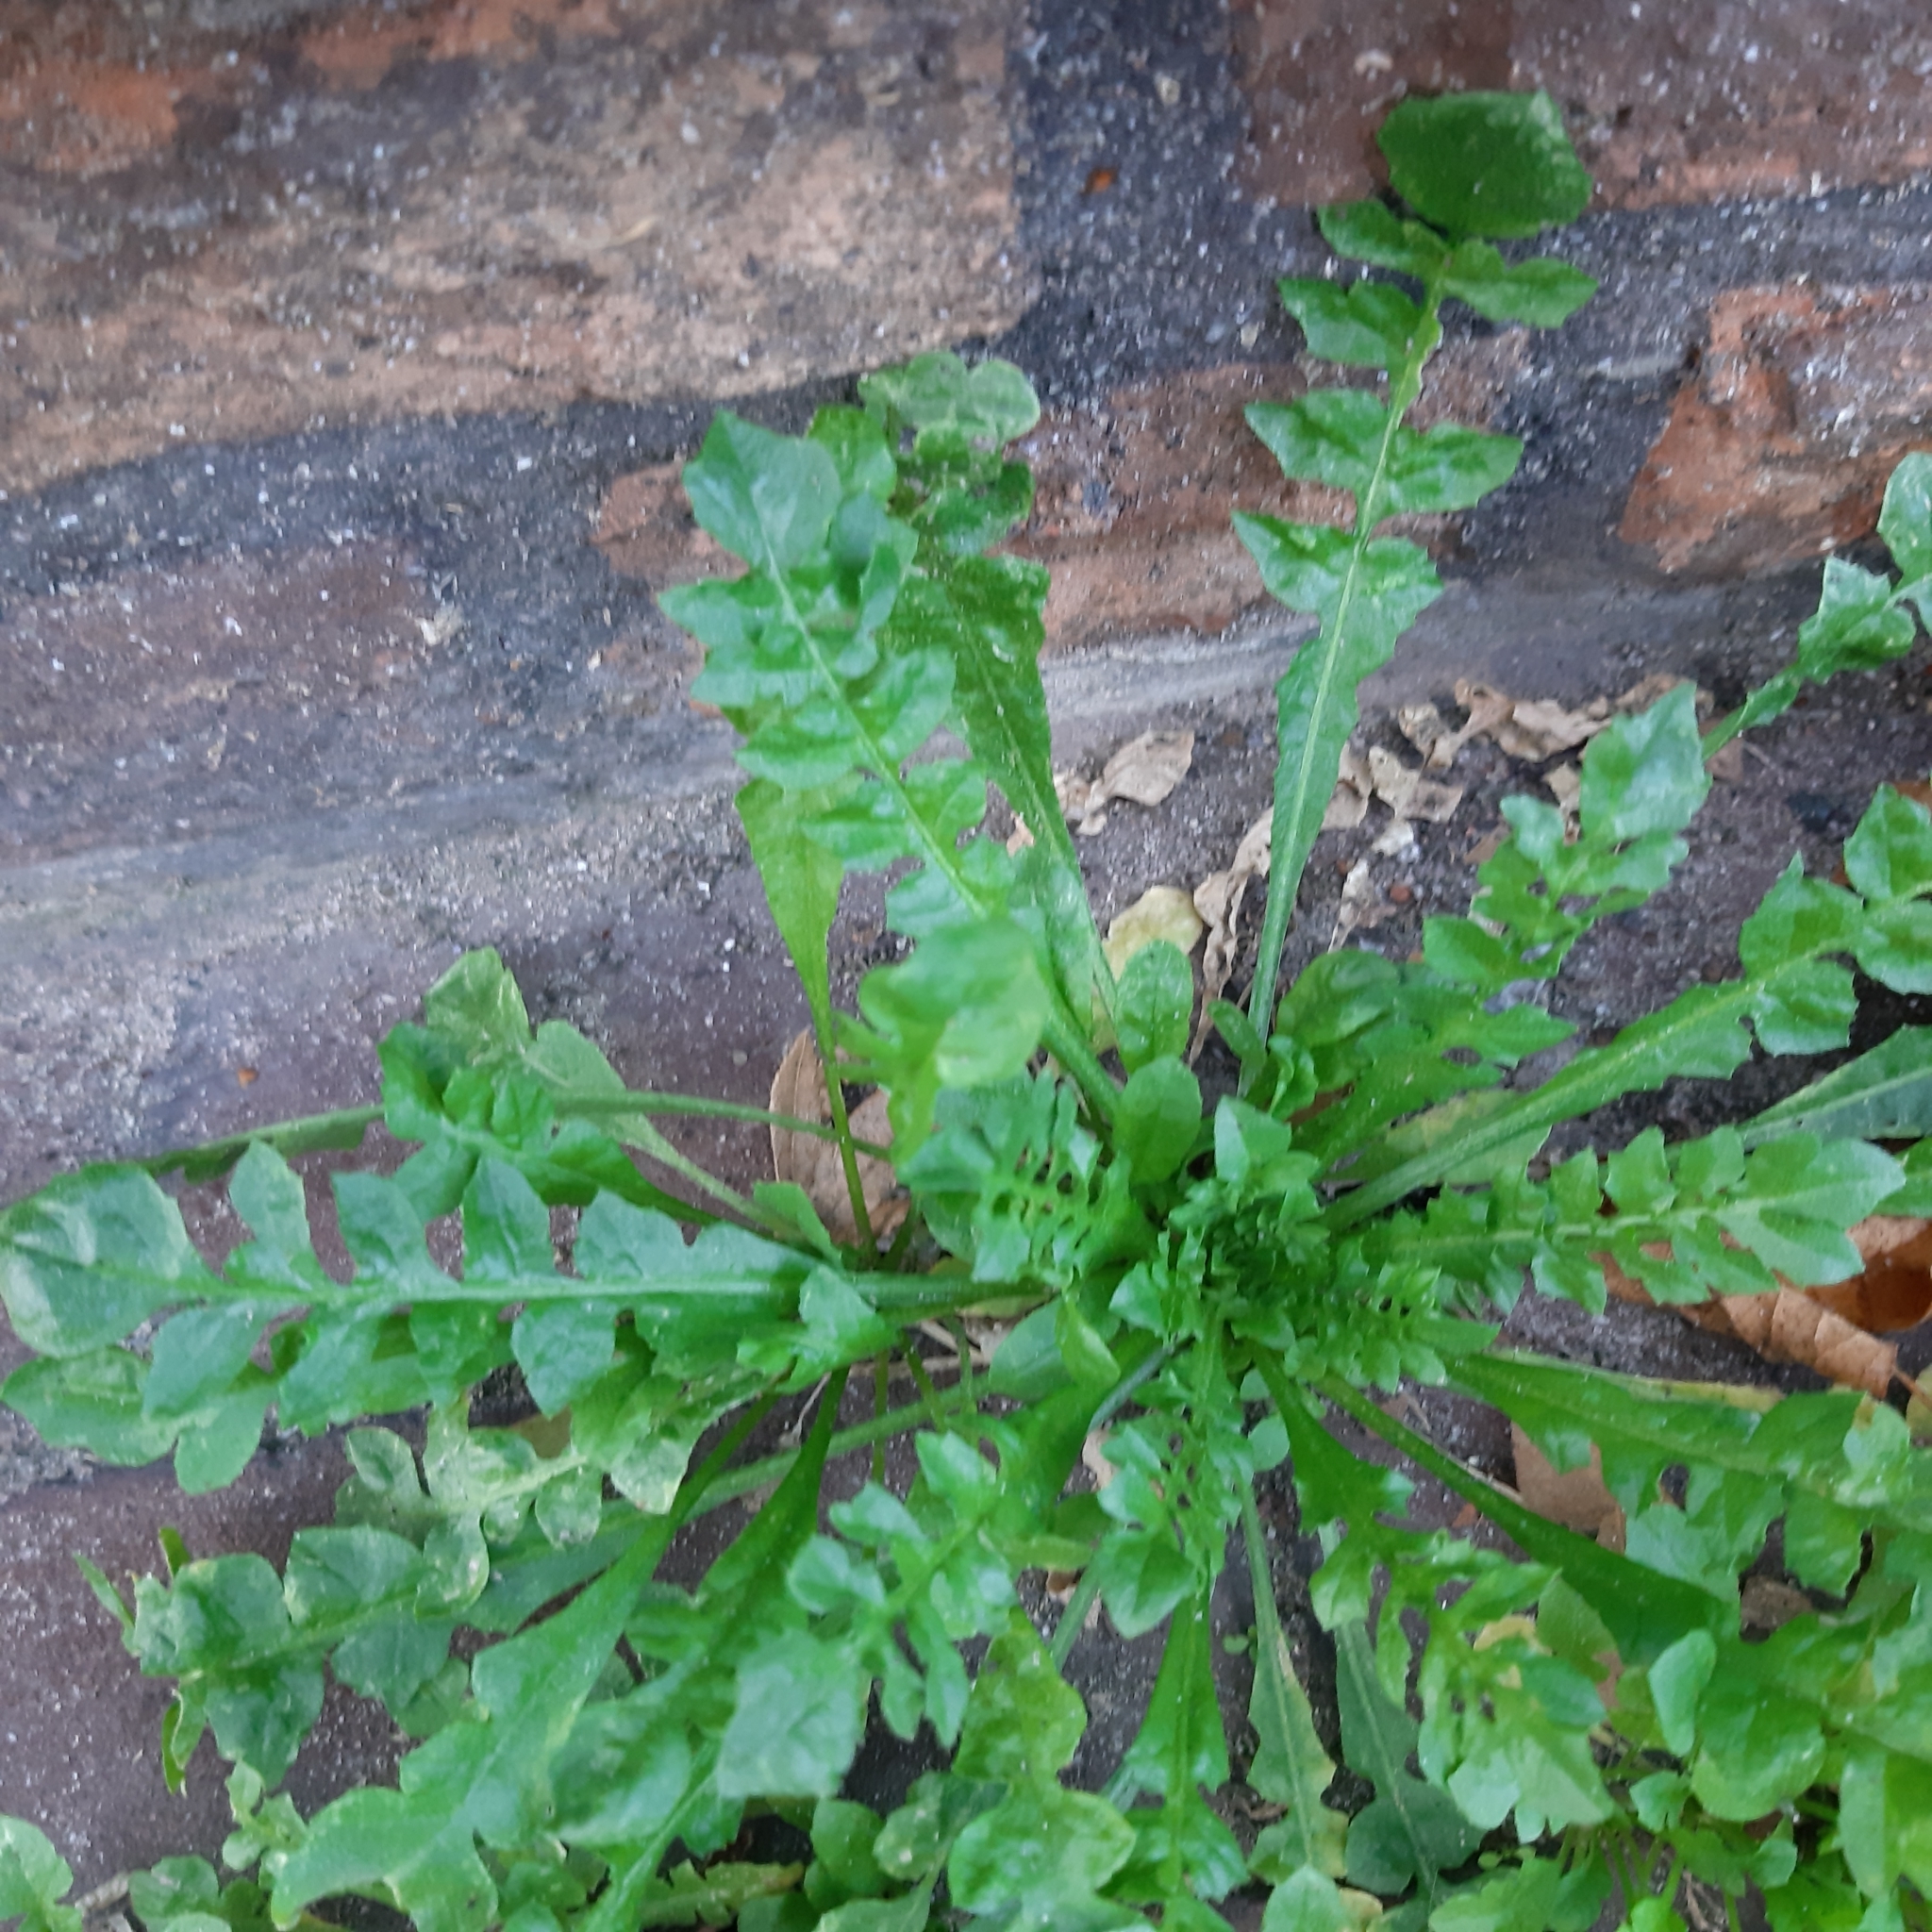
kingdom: Plantae
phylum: Tracheophyta
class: Magnoliopsida
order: Brassicales
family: Brassicaceae
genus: Capsella
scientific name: Capsella bursa-pastoris
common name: Shepherd's purse
